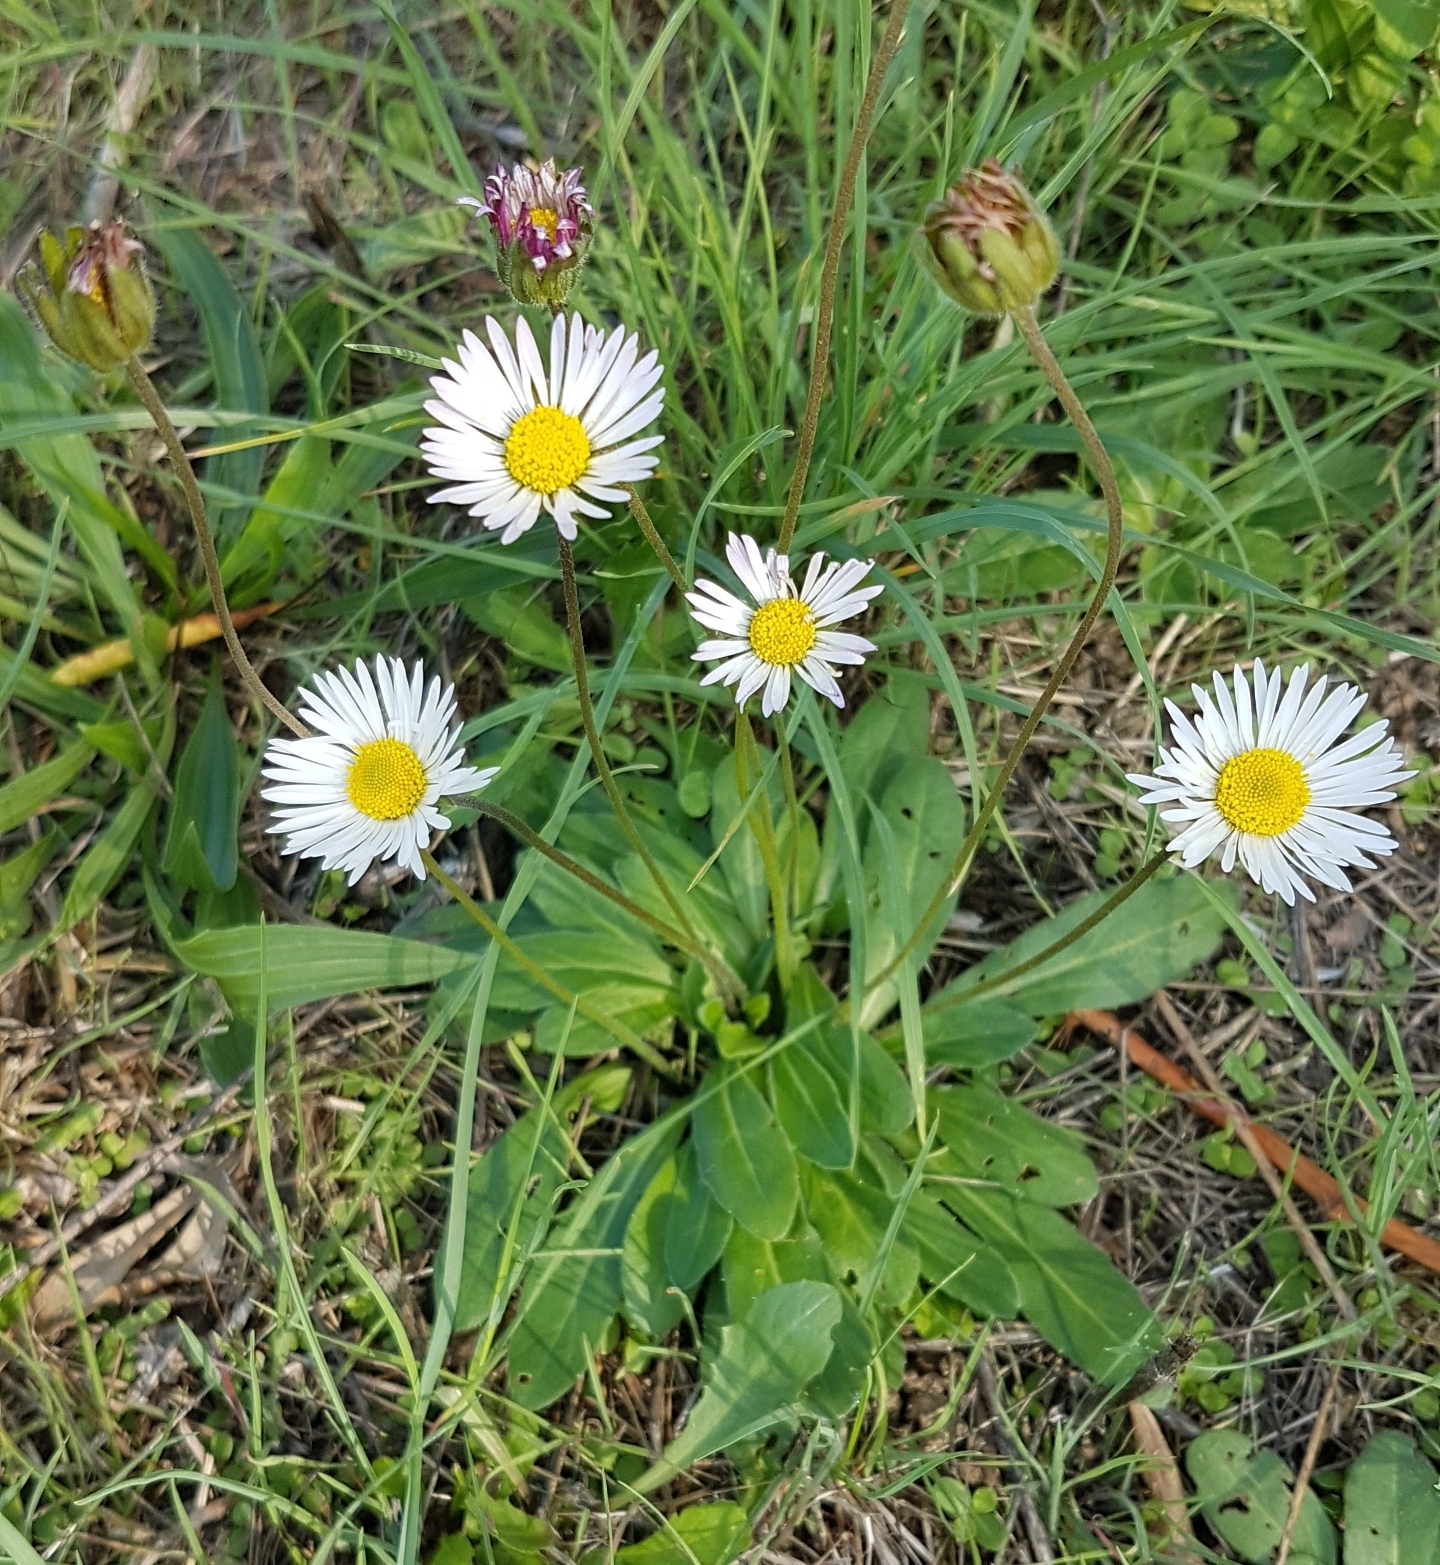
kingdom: Plantae
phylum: Tracheophyta
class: Magnoliopsida
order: Asterales
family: Asteraceae
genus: Bellis
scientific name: Bellis perennis
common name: Lawndaisy
